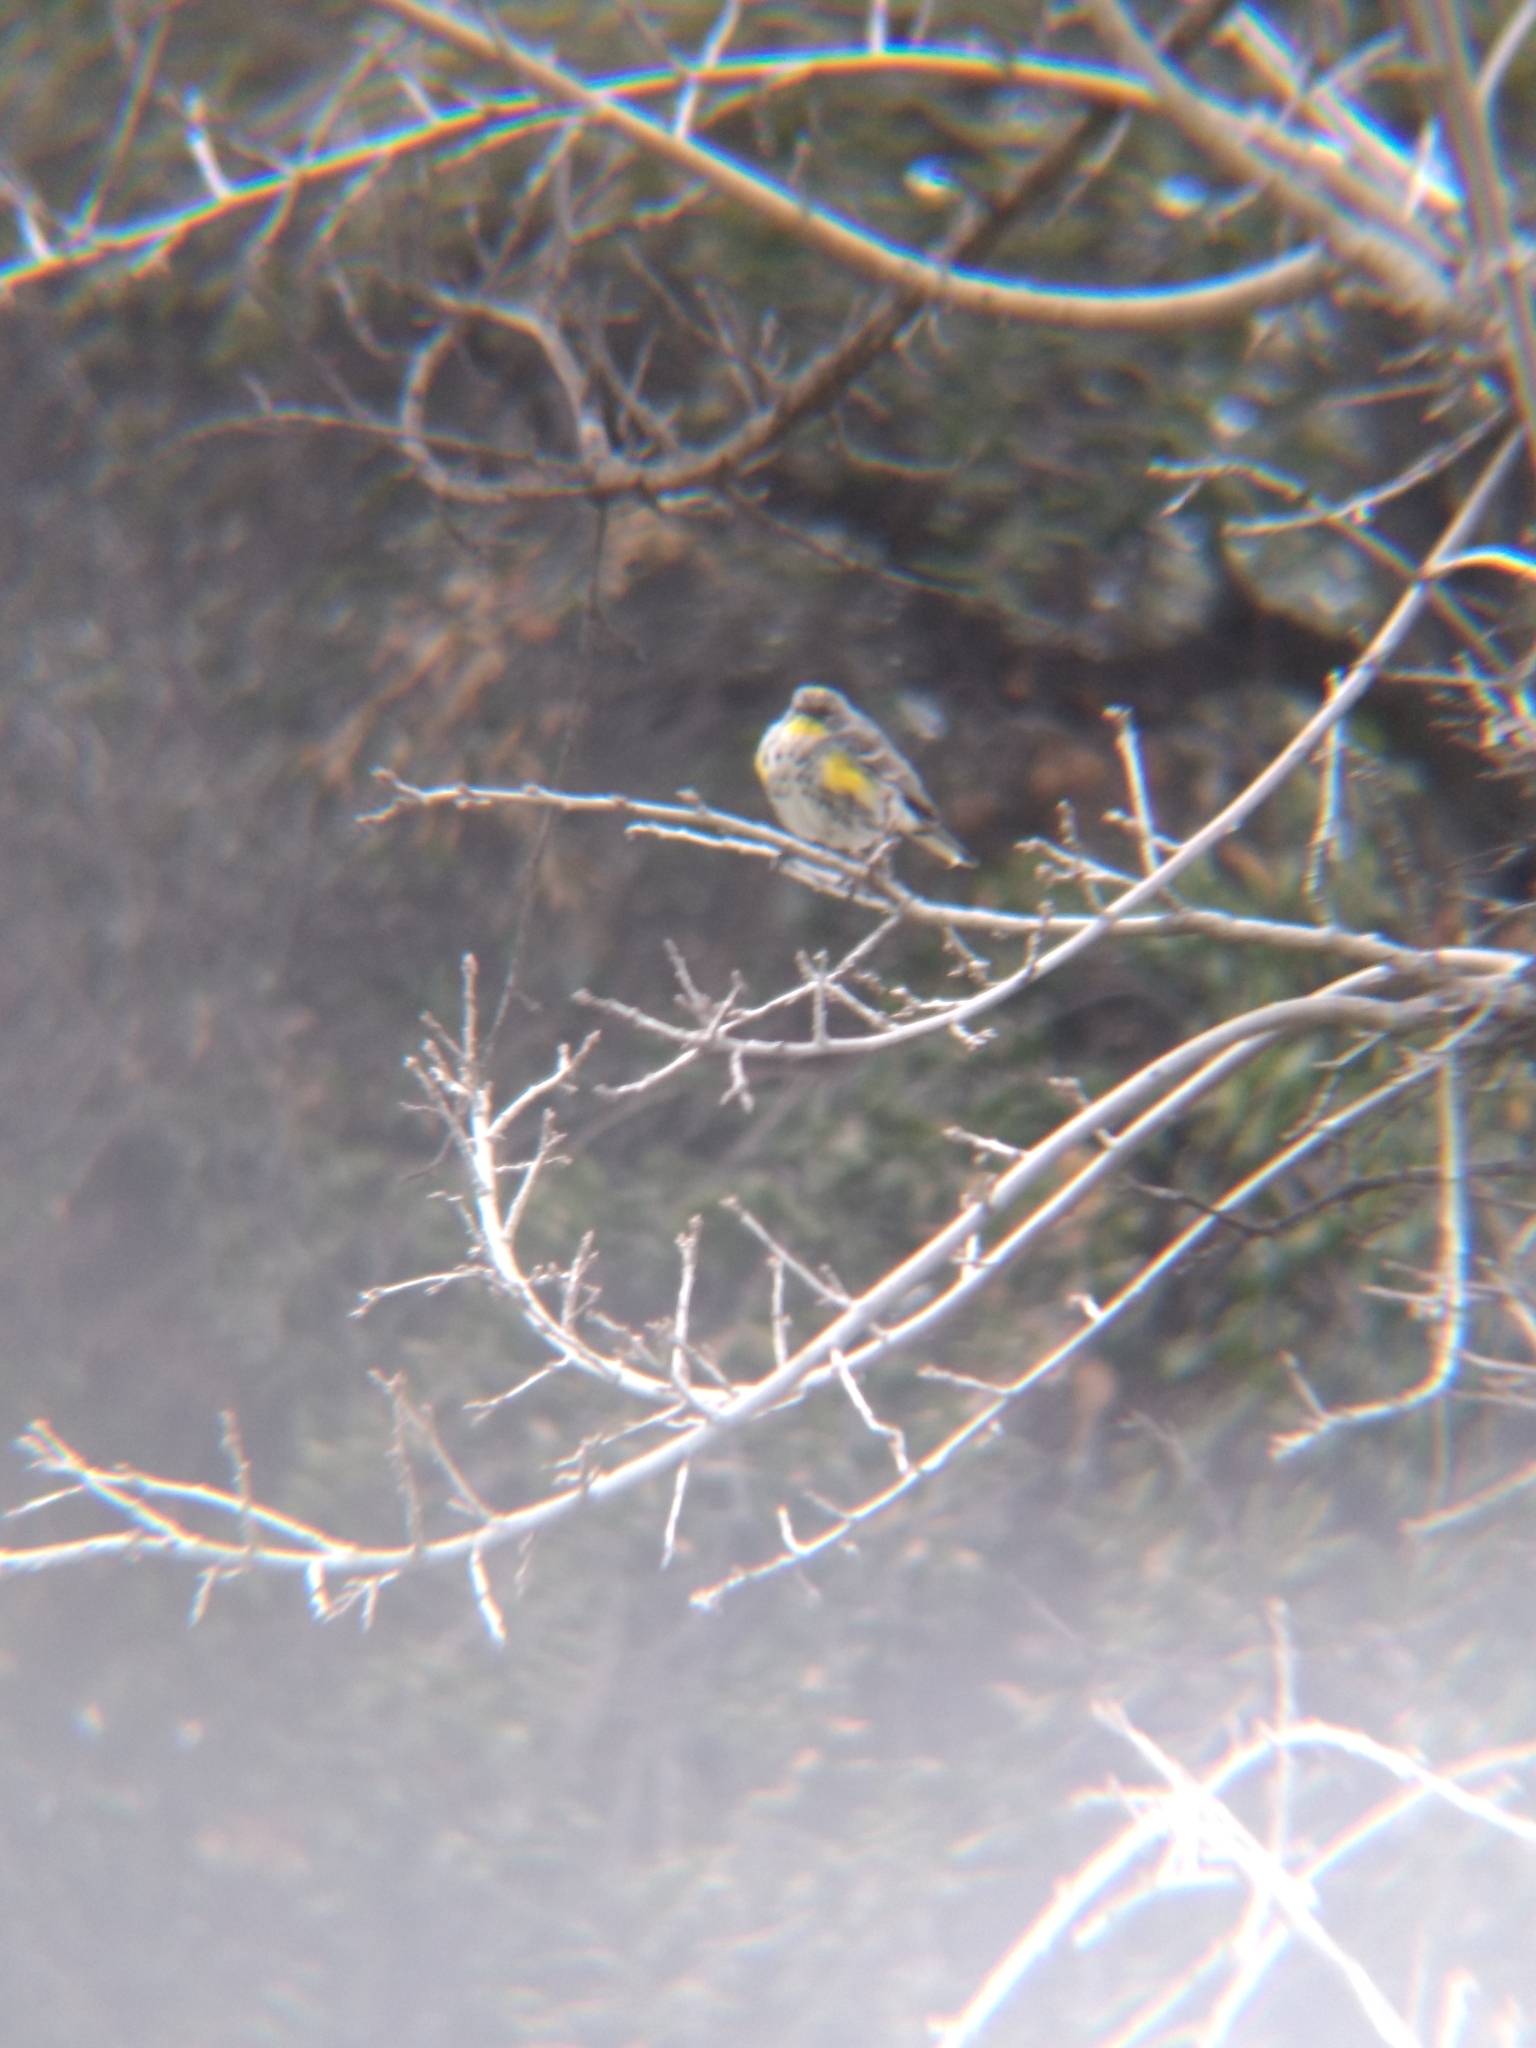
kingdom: Animalia
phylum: Chordata
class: Aves
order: Passeriformes
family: Parulidae
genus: Setophaga
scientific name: Setophaga coronata
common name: Myrtle warbler
